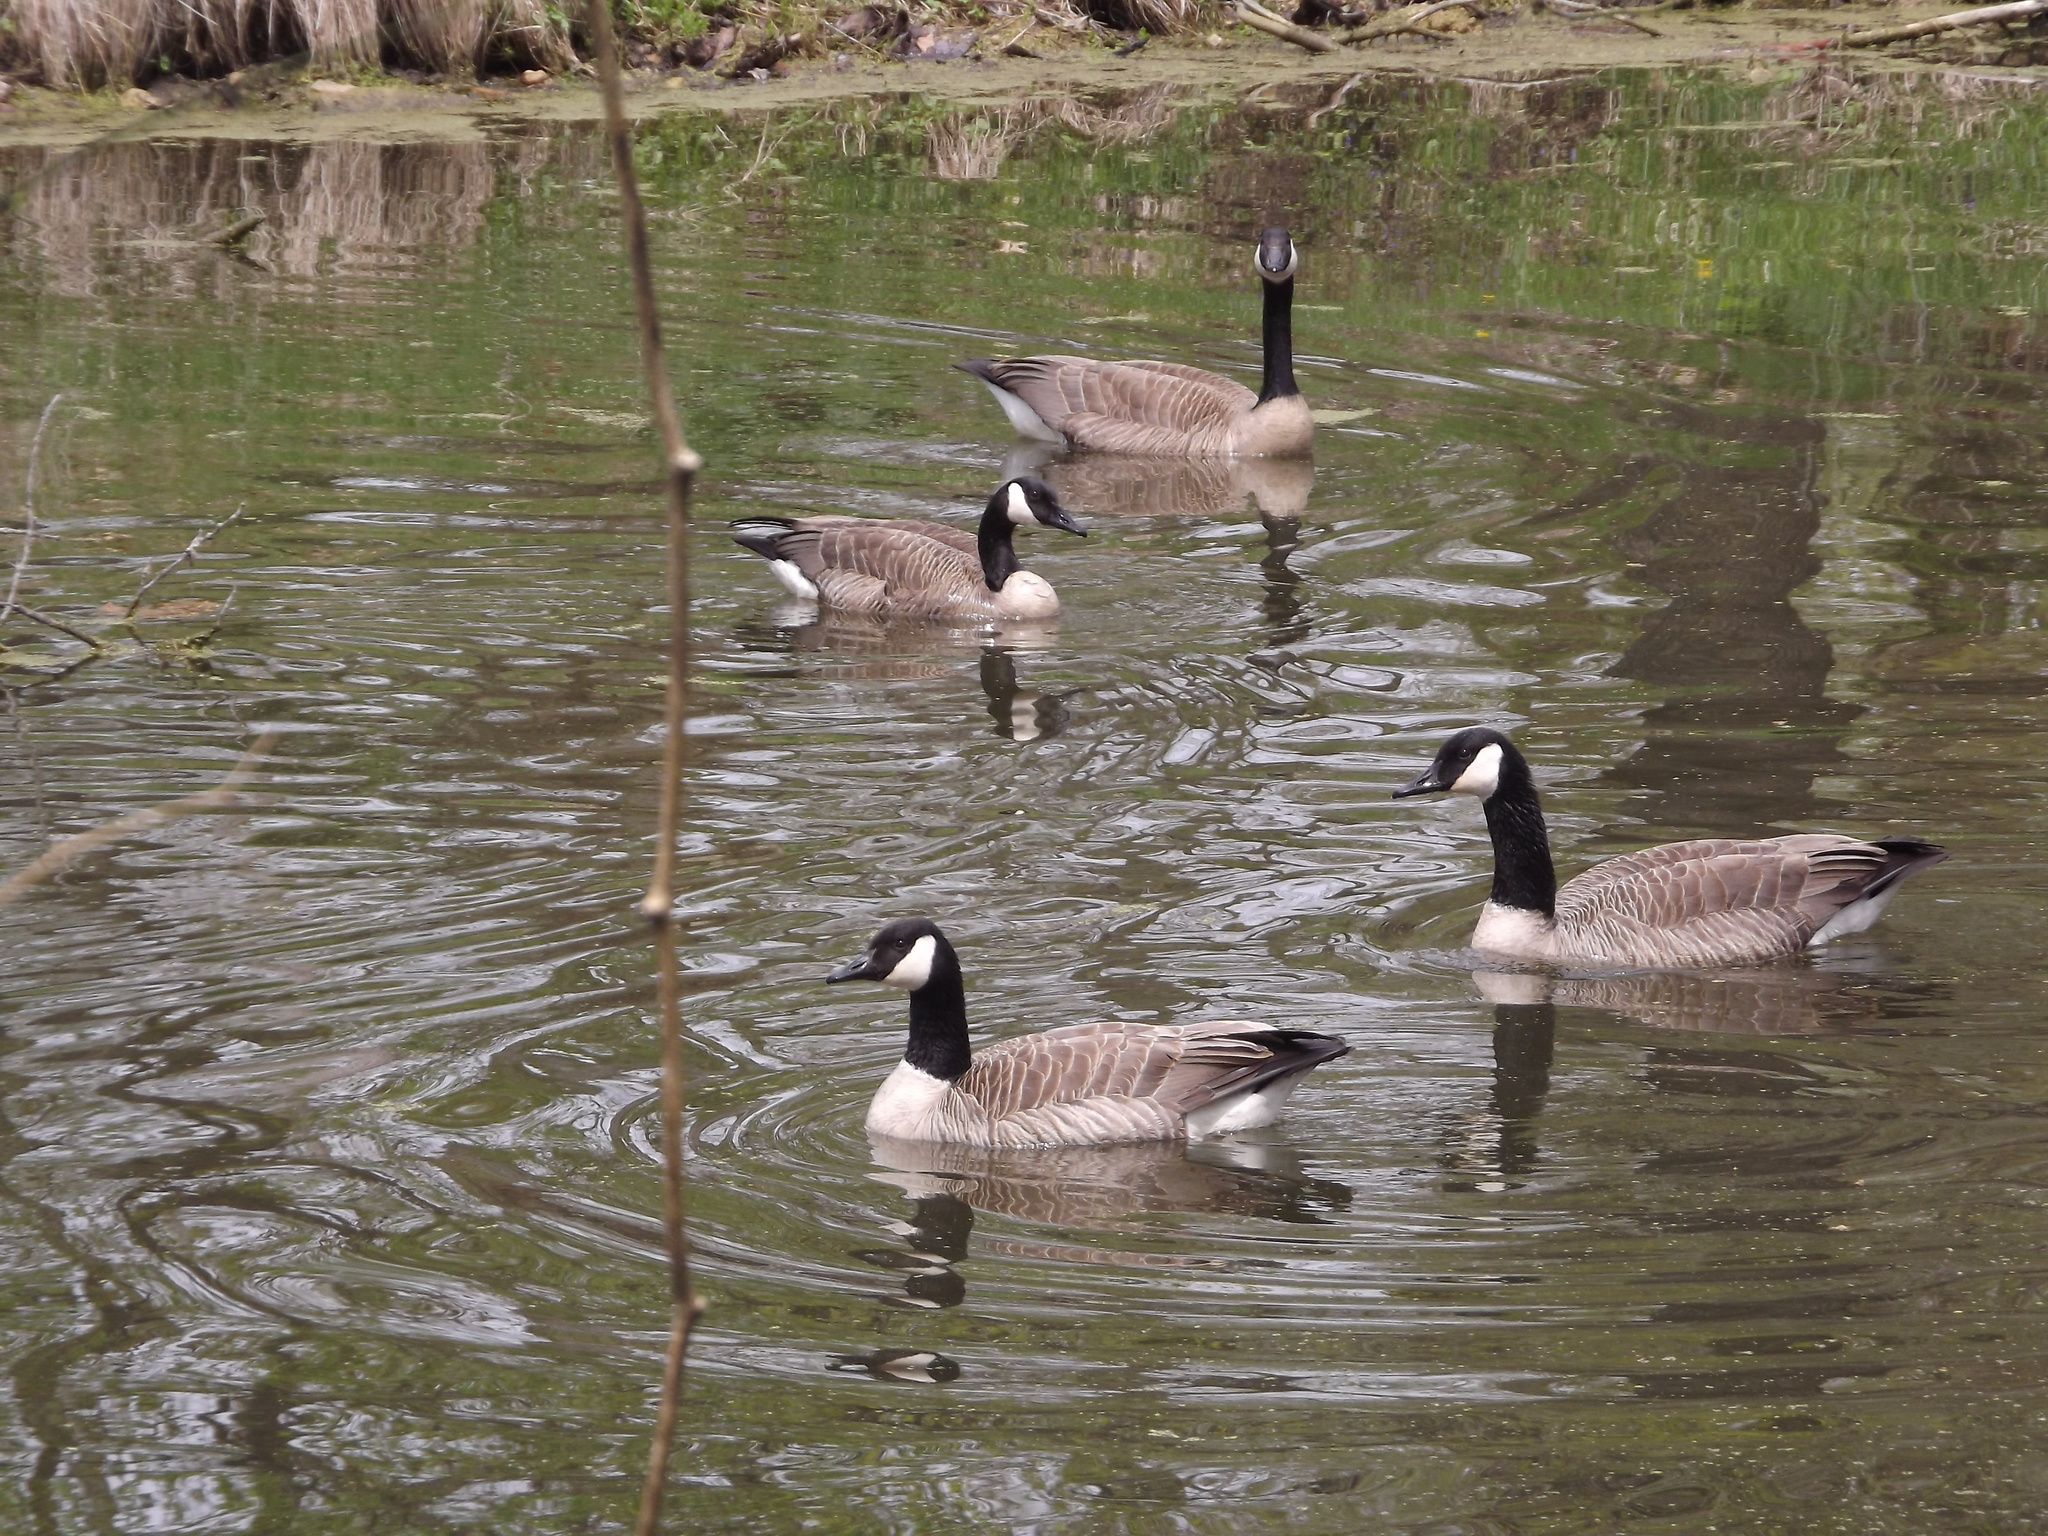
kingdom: Animalia
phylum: Chordata
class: Aves
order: Anseriformes
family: Anatidae
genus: Branta
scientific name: Branta canadensis
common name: Canada goose
